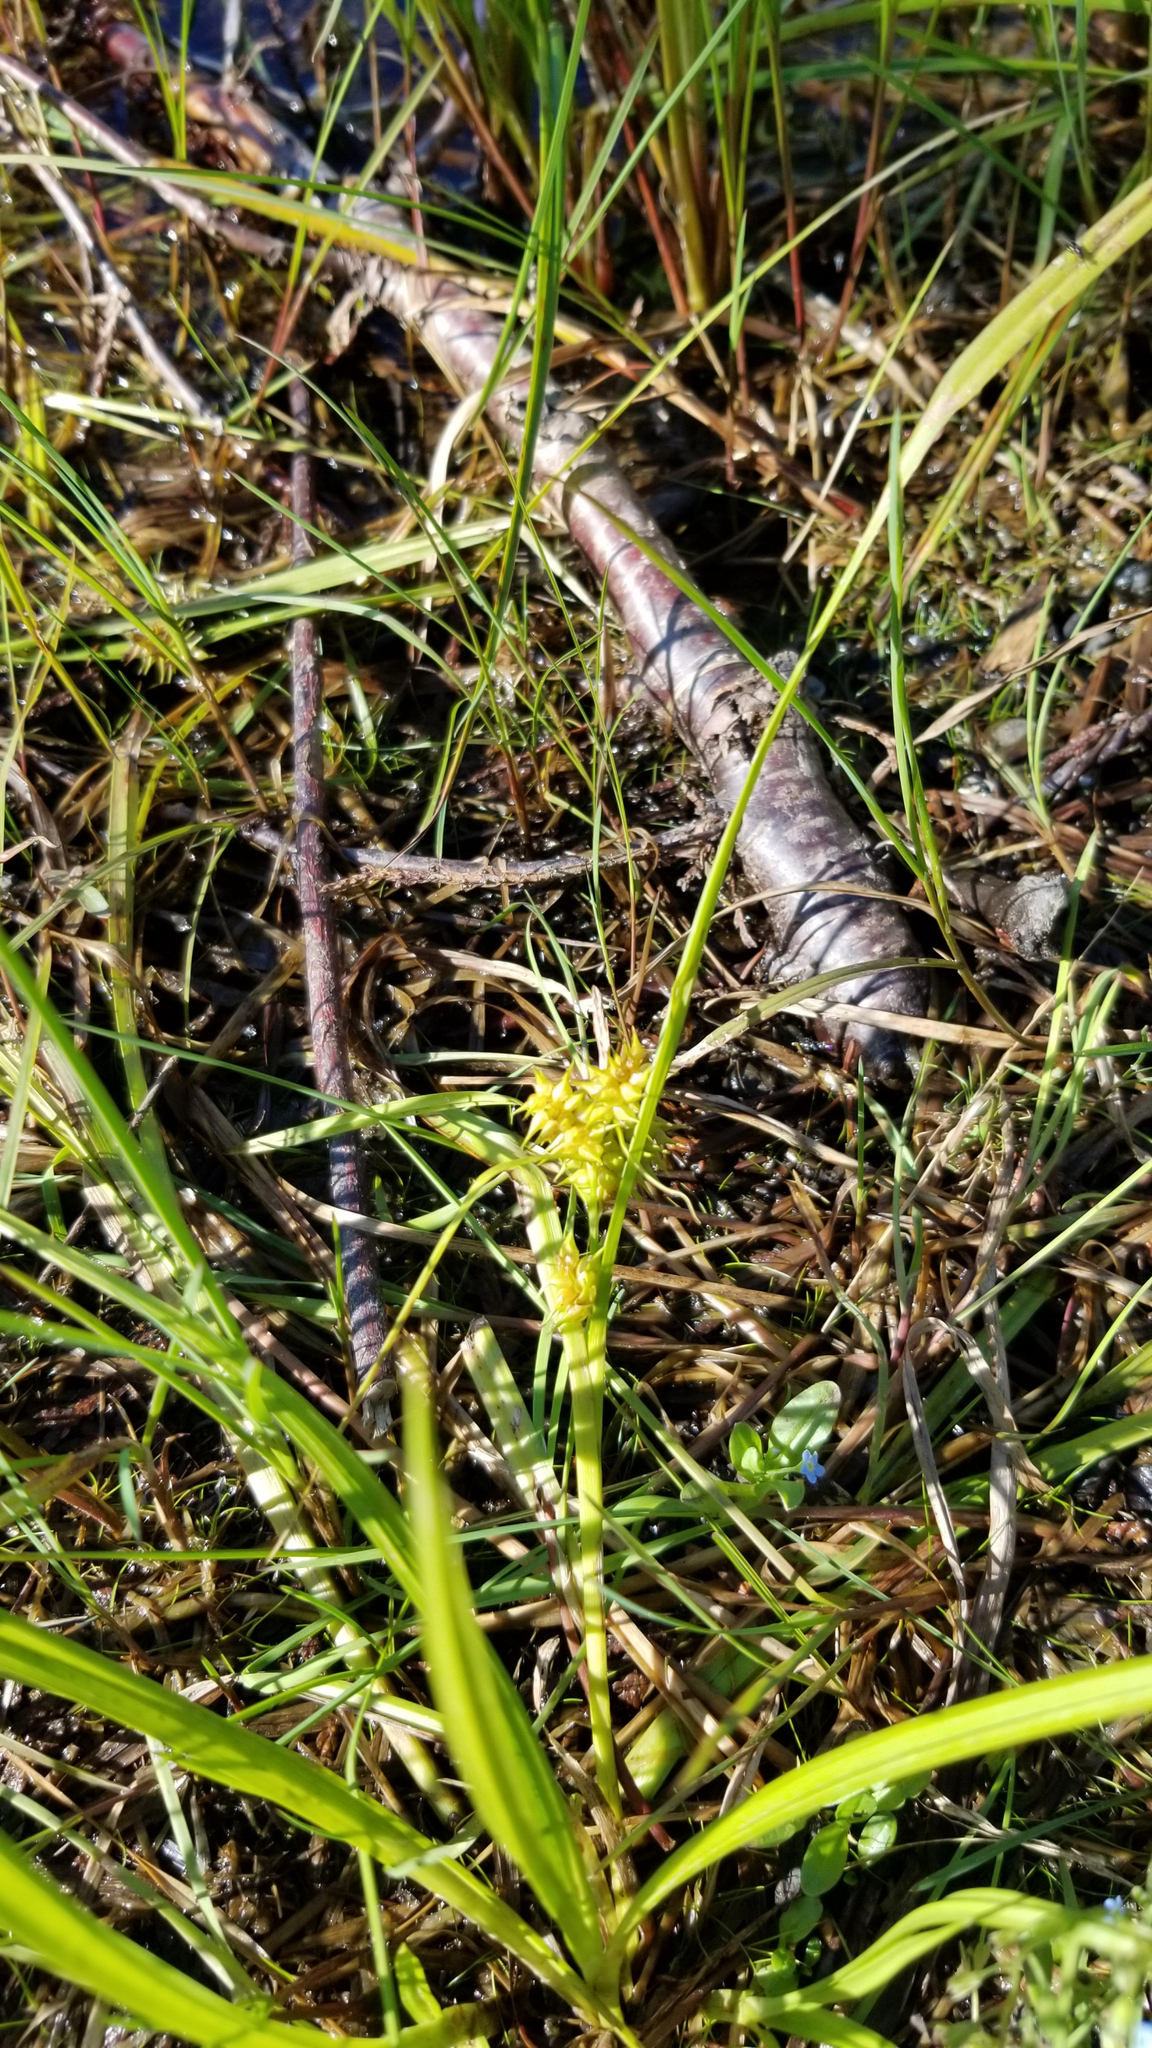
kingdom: Plantae
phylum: Tracheophyta
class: Liliopsida
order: Poales
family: Cyperaceae
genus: Carex
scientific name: Carex retrorsa
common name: Knot-sheath sedge
